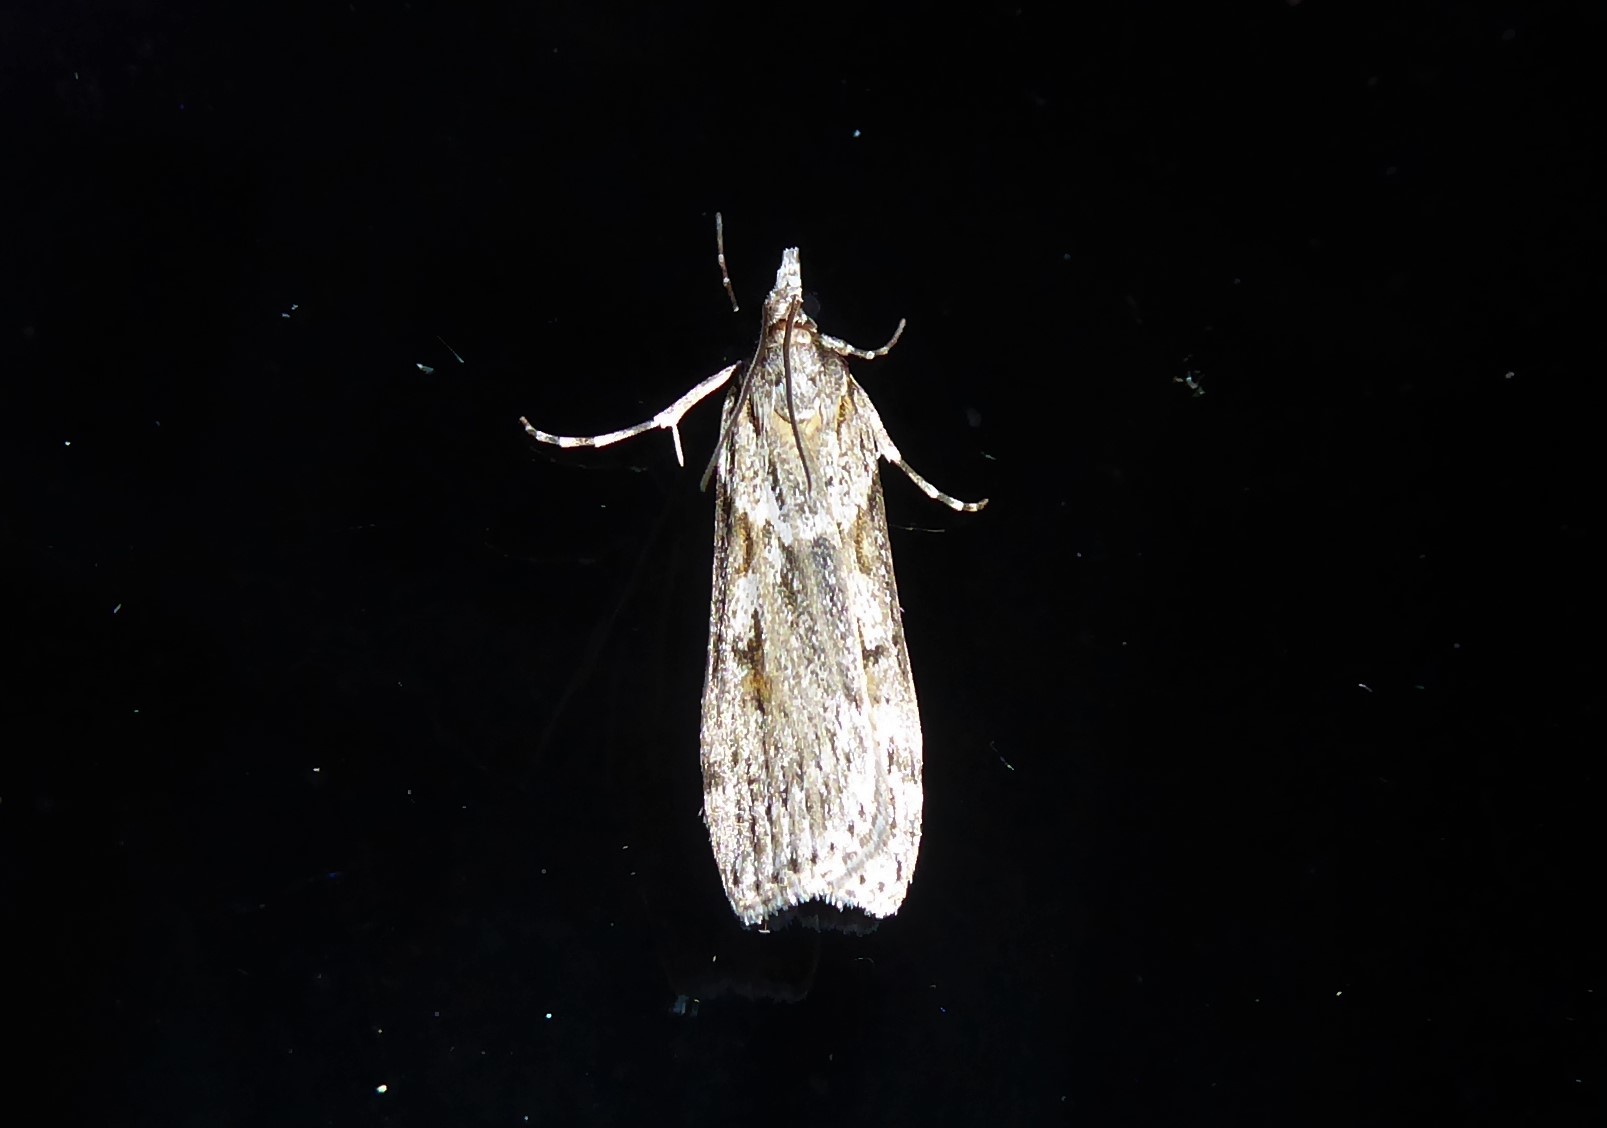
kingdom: Animalia
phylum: Arthropoda
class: Insecta
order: Lepidoptera
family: Crambidae
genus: Scoparia
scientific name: Scoparia halopis
